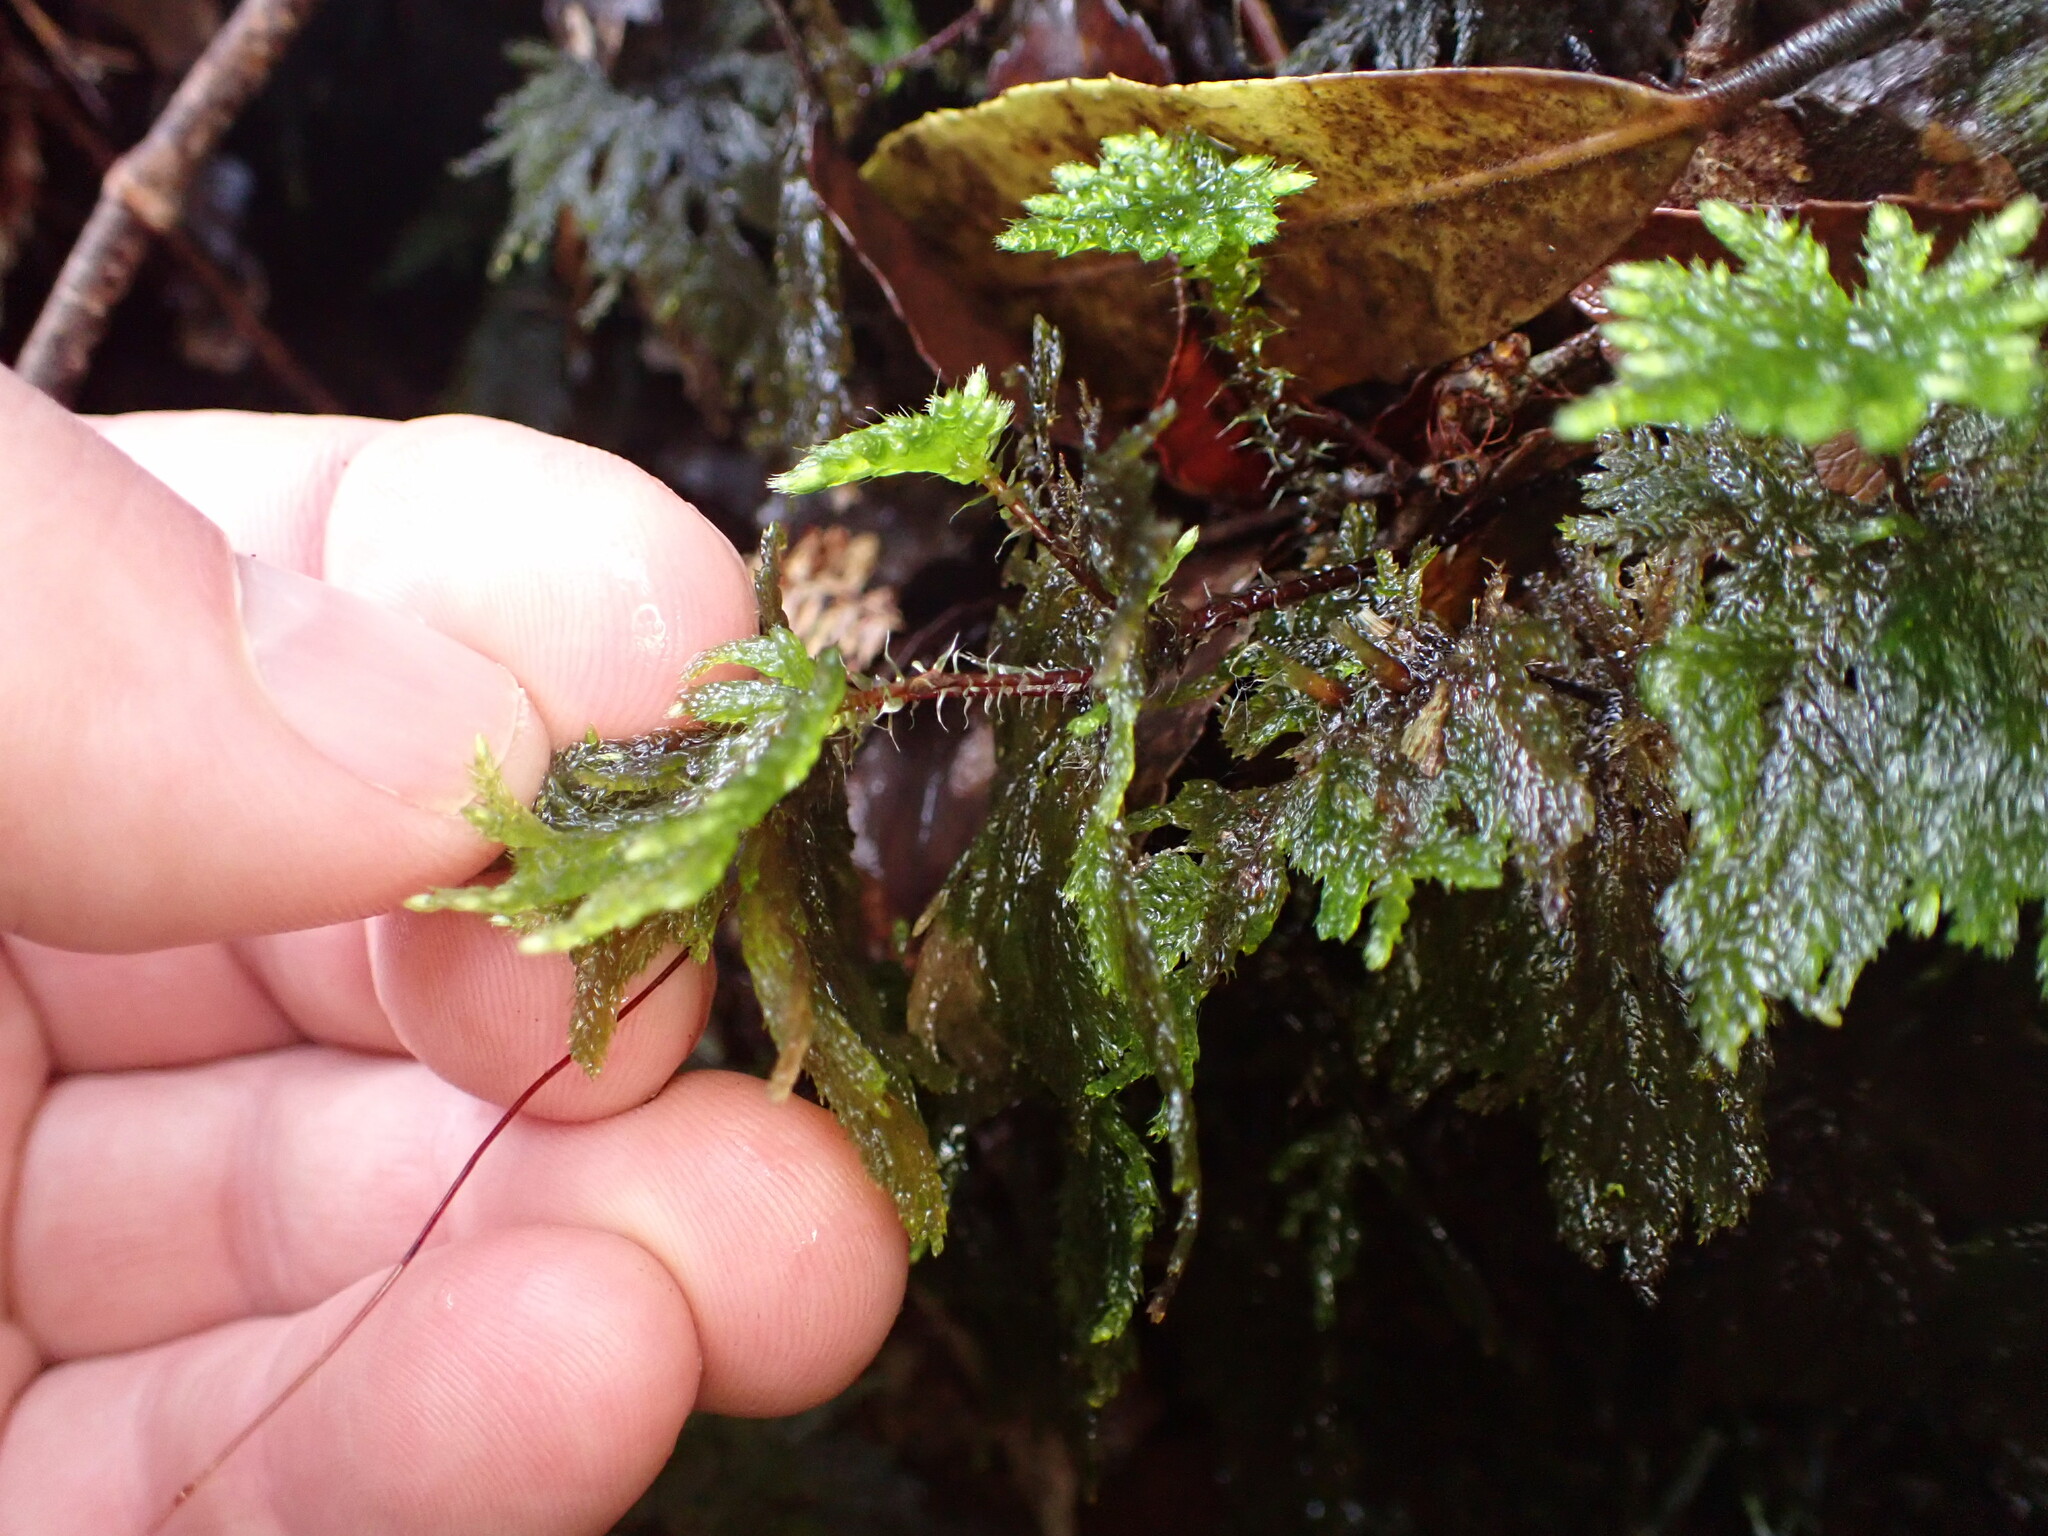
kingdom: Plantae
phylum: Bryophyta
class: Bryopsida
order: Hypnodendrales
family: Pterobryellaceae
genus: Sciadocladus
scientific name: Sciadocladus menziesii
